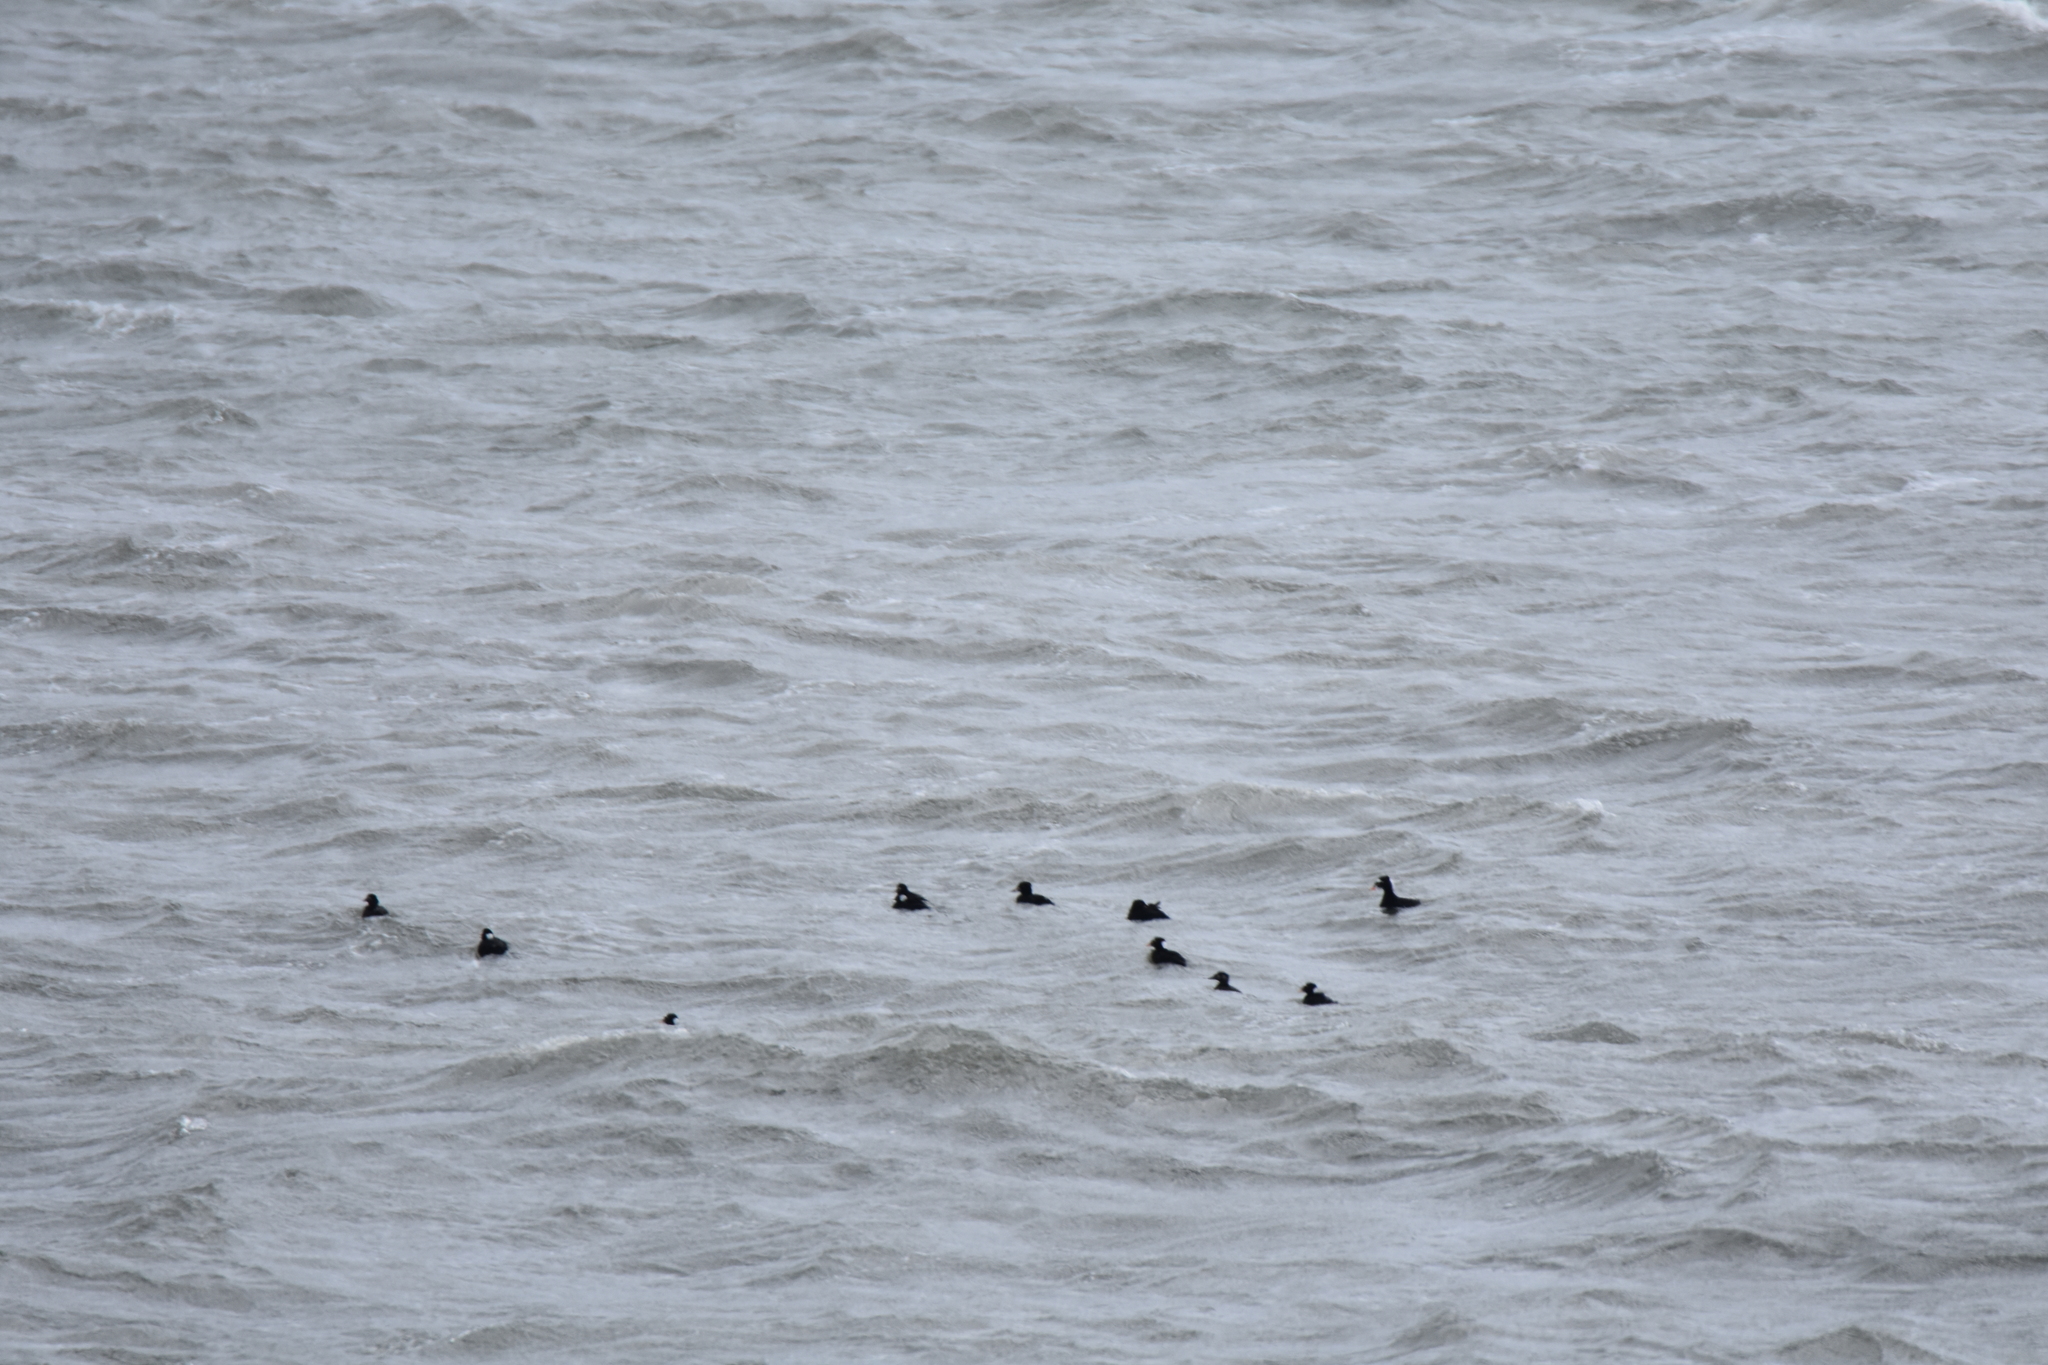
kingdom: Animalia
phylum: Chordata
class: Aves
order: Anseriformes
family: Anatidae
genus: Melanitta
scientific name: Melanitta perspicillata
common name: Surf scoter
